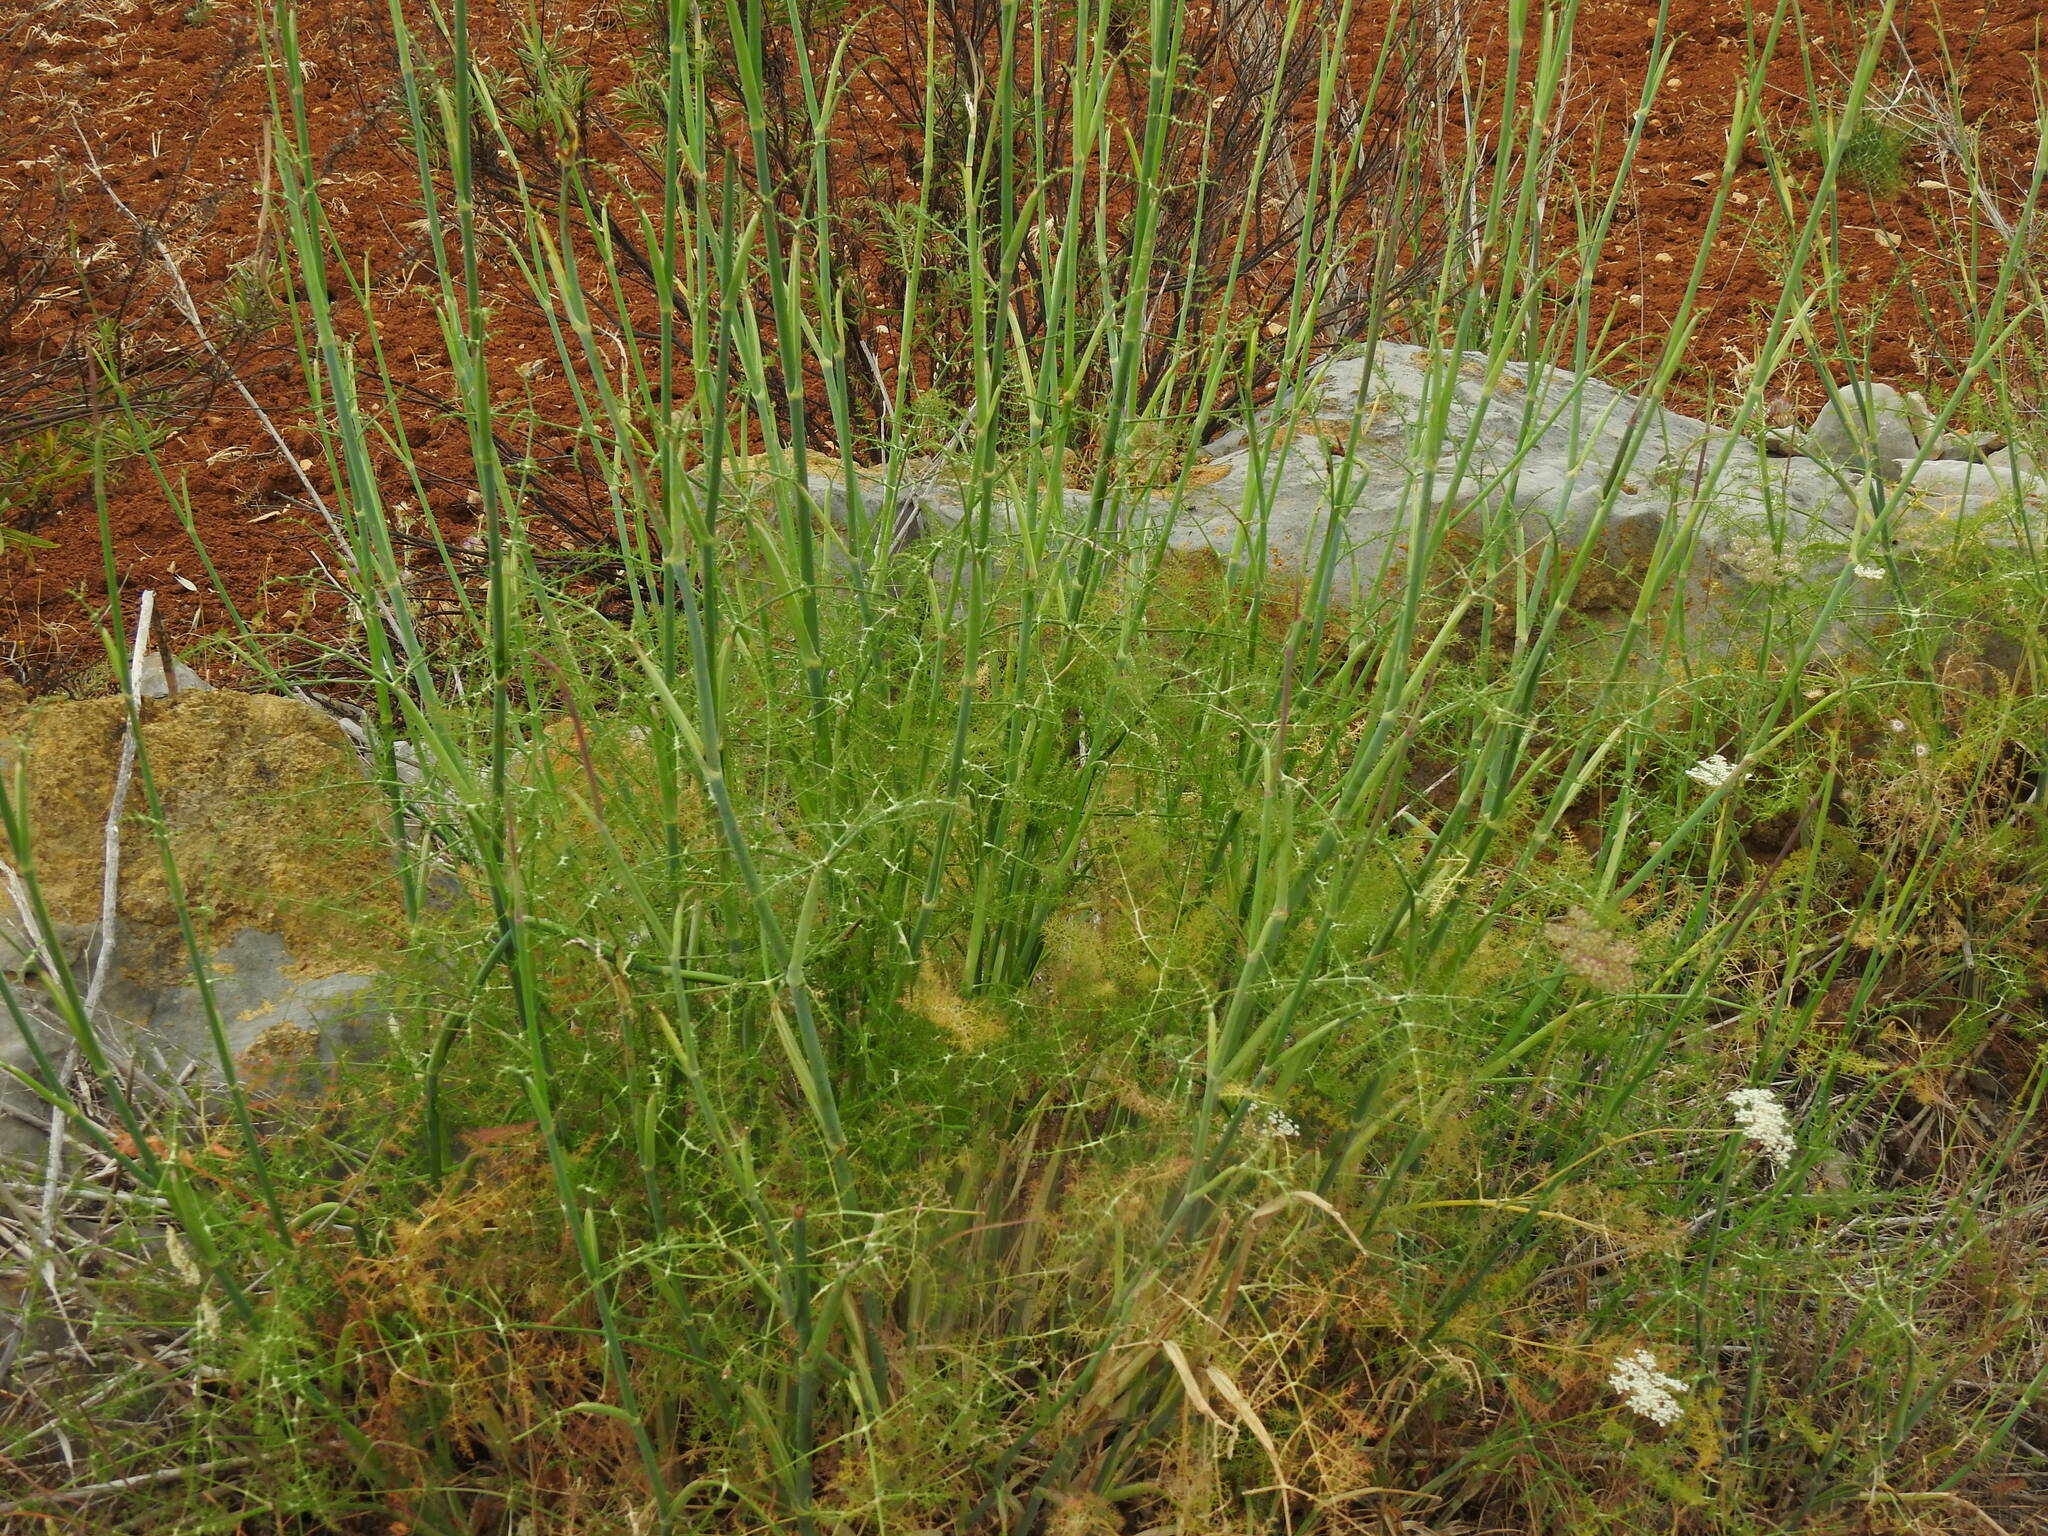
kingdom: Plantae
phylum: Tracheophyta
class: Magnoliopsida
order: Apiales
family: Apiaceae
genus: Foeniculum
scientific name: Foeniculum vulgare
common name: Fennel
